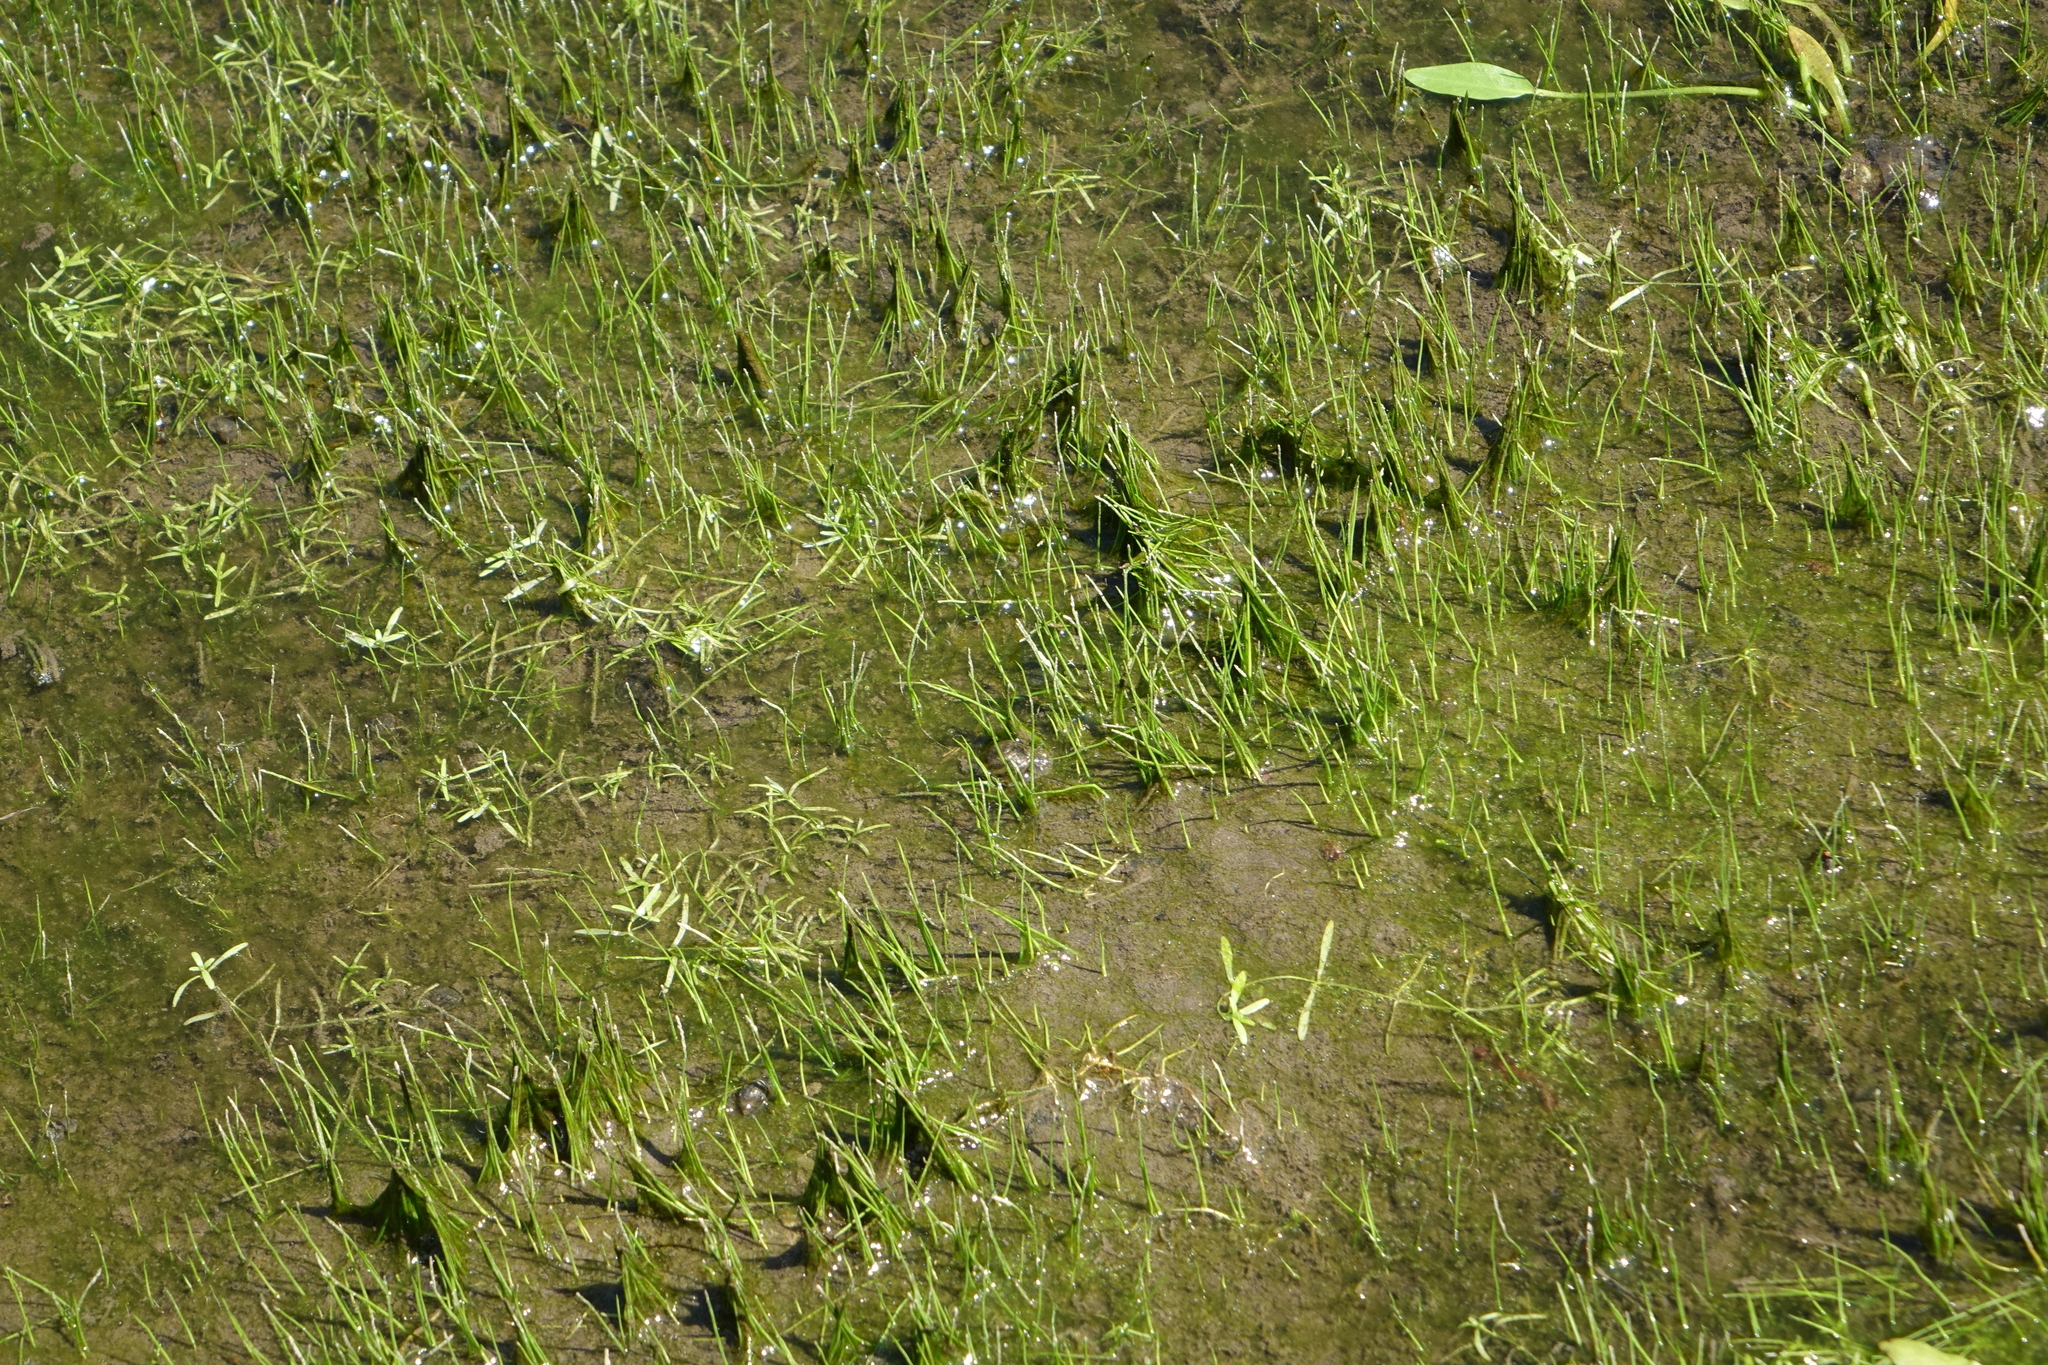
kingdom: Plantae
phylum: Tracheophyta
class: Lycopodiopsida
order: Isoetales
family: Isoetaceae
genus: Isoetes
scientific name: Isoetes lacustris
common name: Common quillwort
